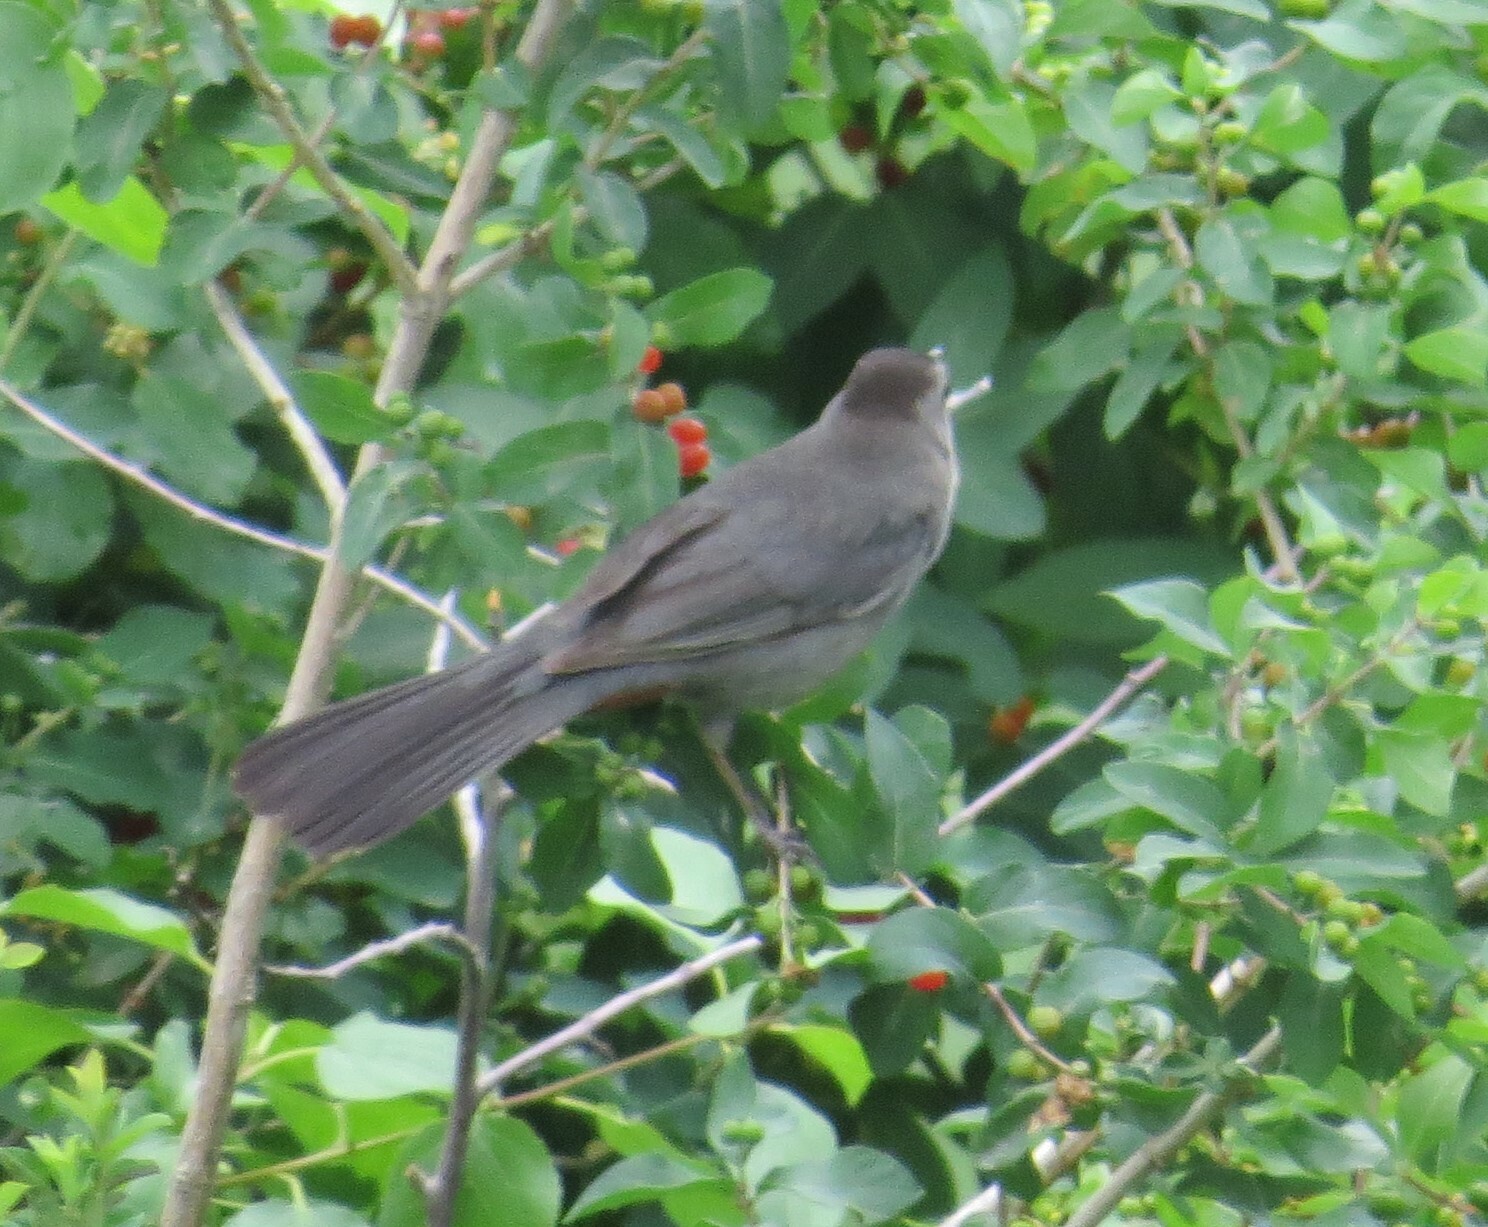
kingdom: Animalia
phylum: Chordata
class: Aves
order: Passeriformes
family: Mimidae
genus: Dumetella
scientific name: Dumetella carolinensis
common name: Gray catbird
